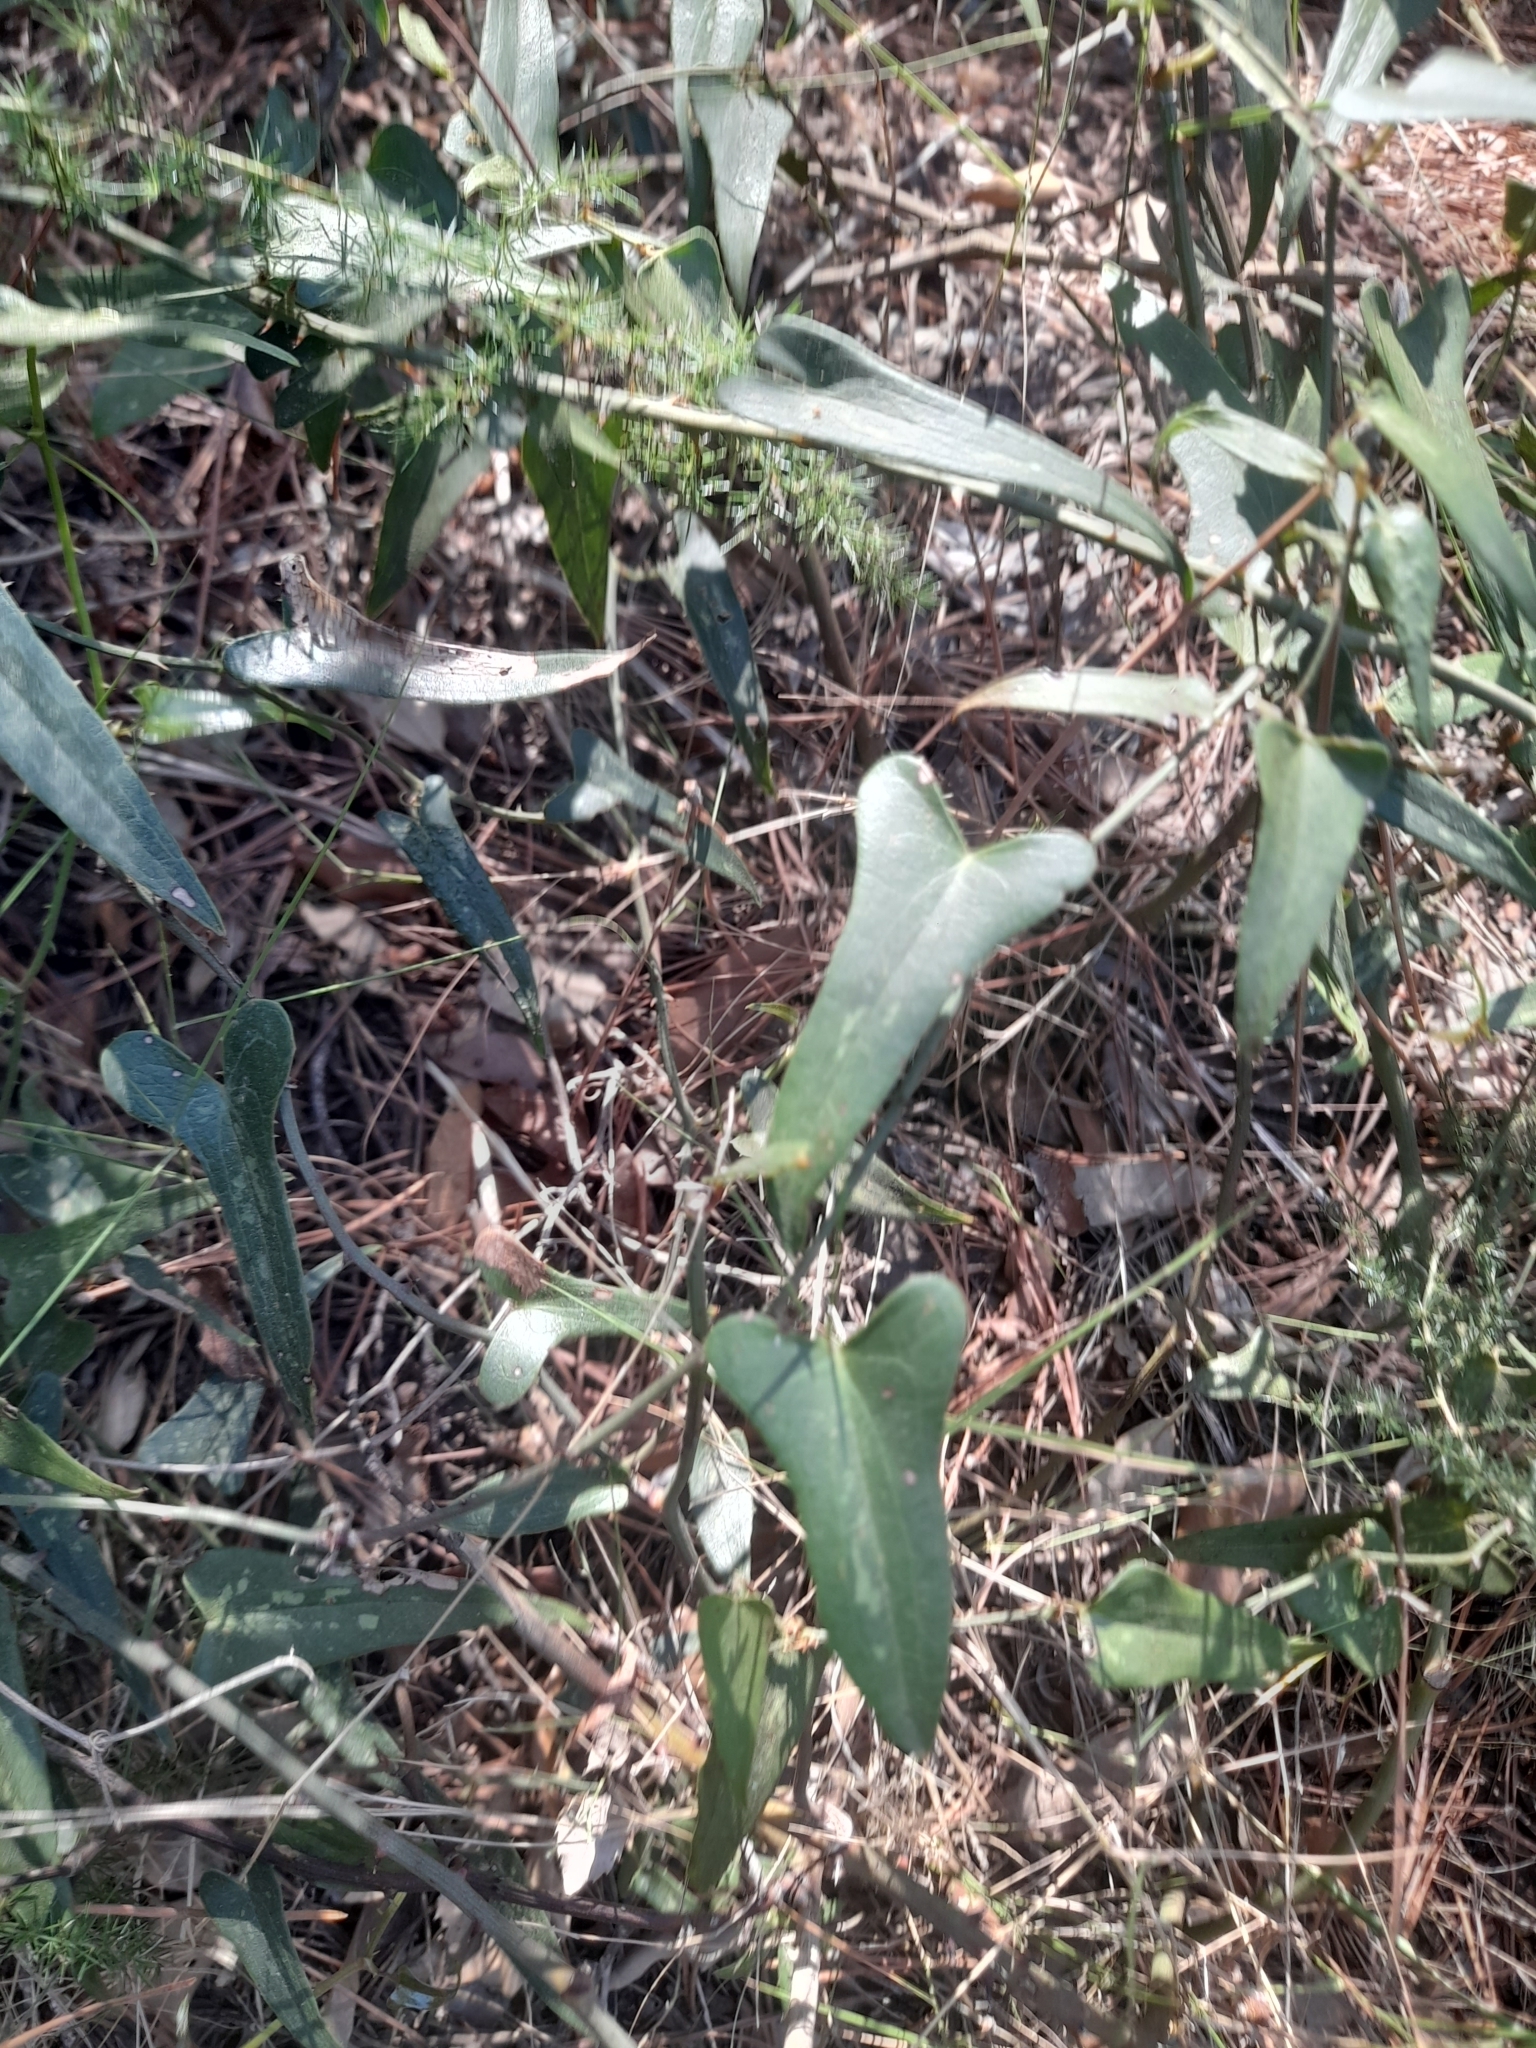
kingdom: Plantae
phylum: Tracheophyta
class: Liliopsida
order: Liliales
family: Smilacaceae
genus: Smilax
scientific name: Smilax aspera
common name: Common smilax
